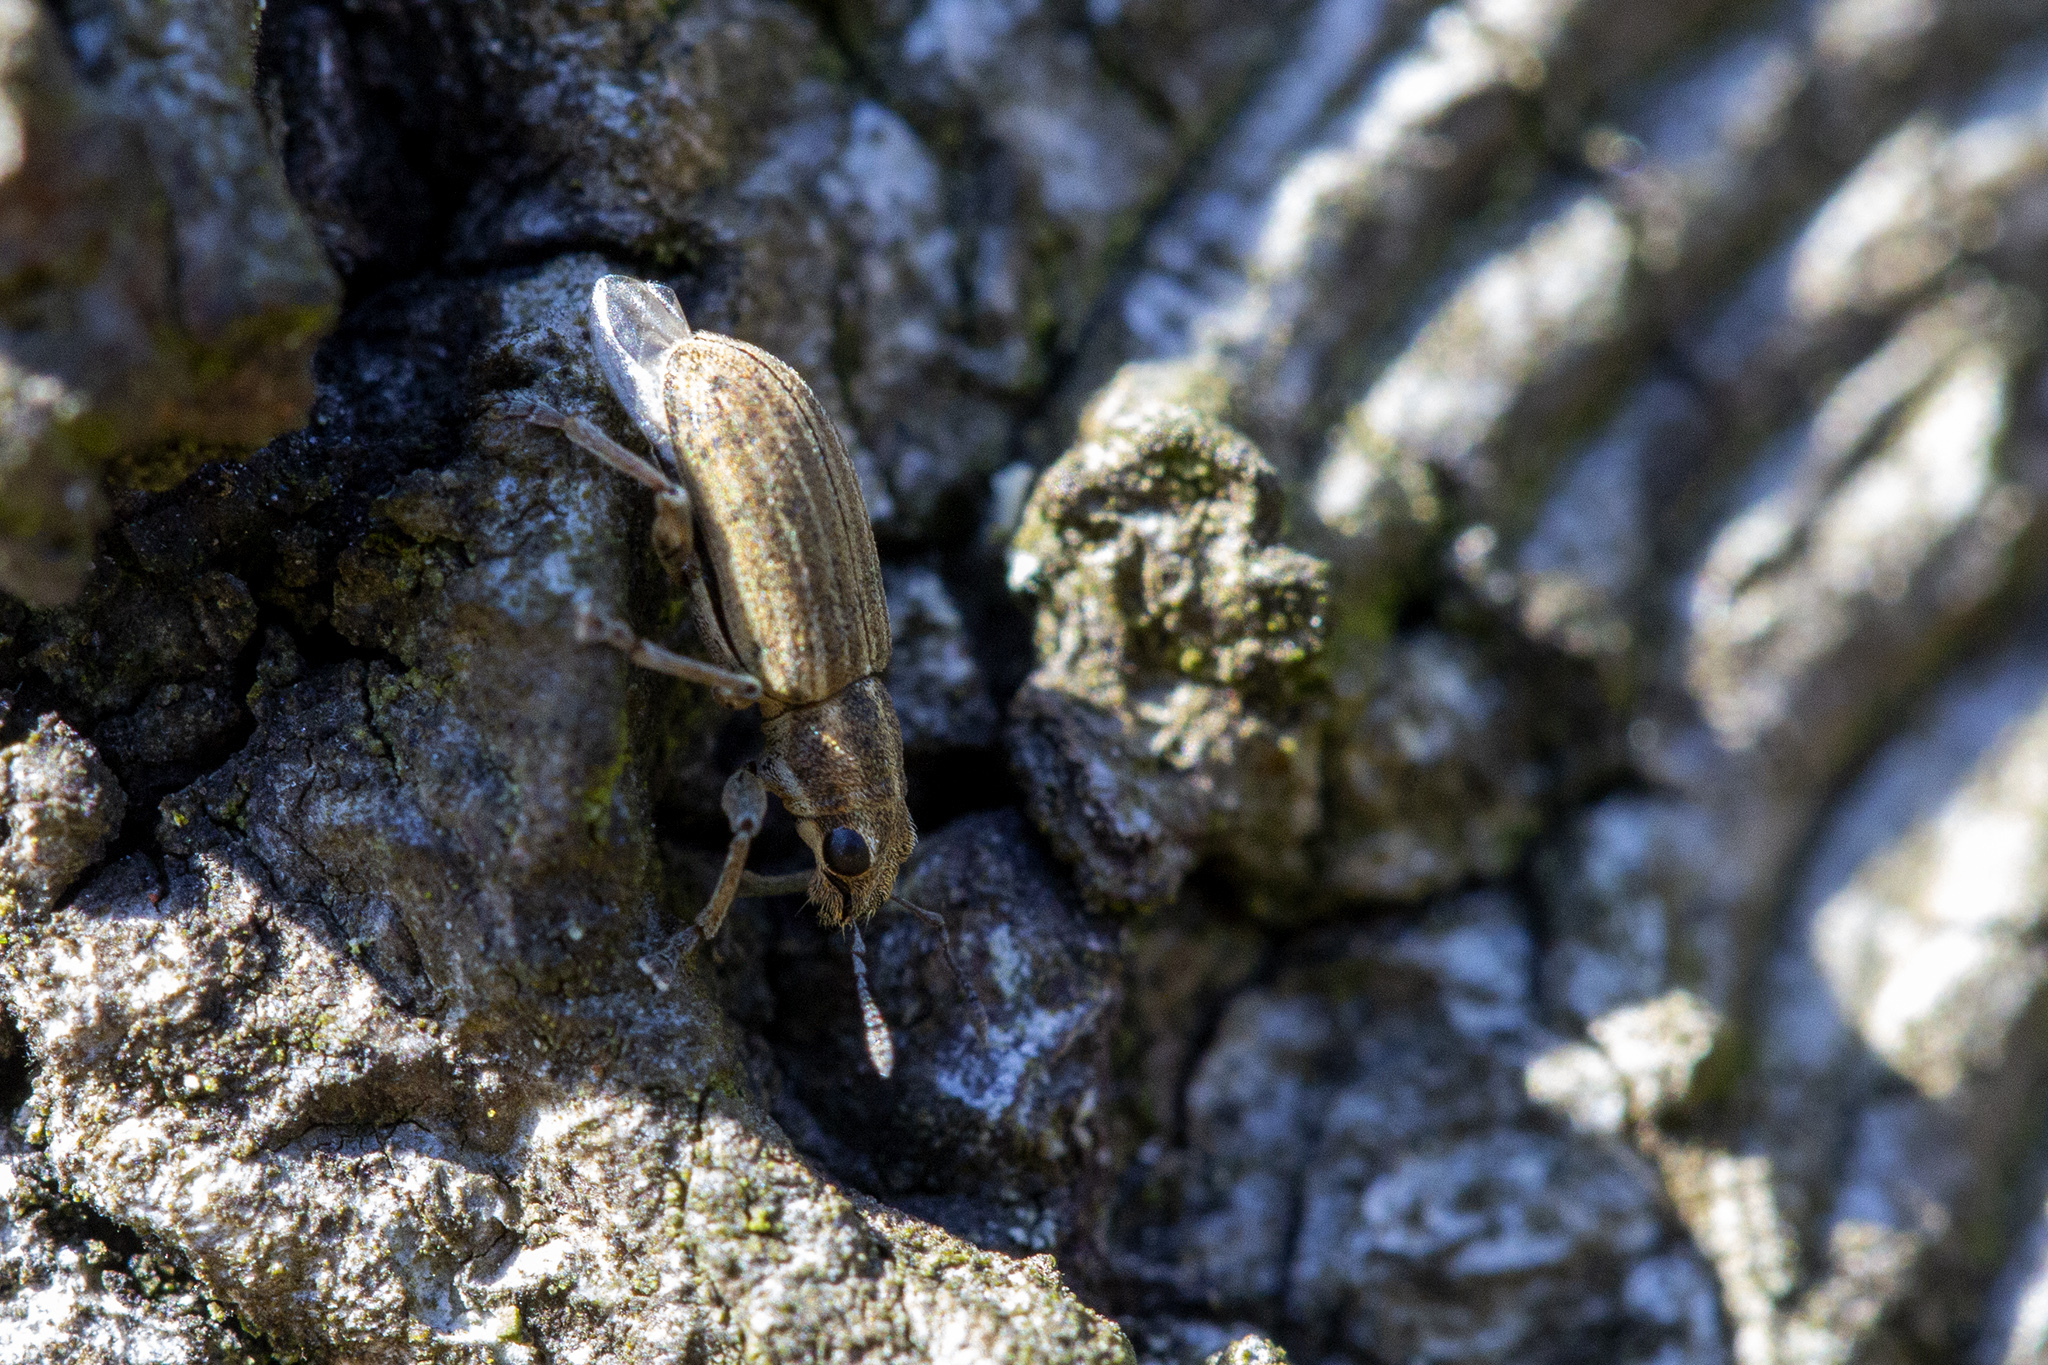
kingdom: Animalia
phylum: Arthropoda
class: Insecta
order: Coleoptera
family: Curculionidae
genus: Sitona
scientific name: Sitona lineatus
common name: Weevil
